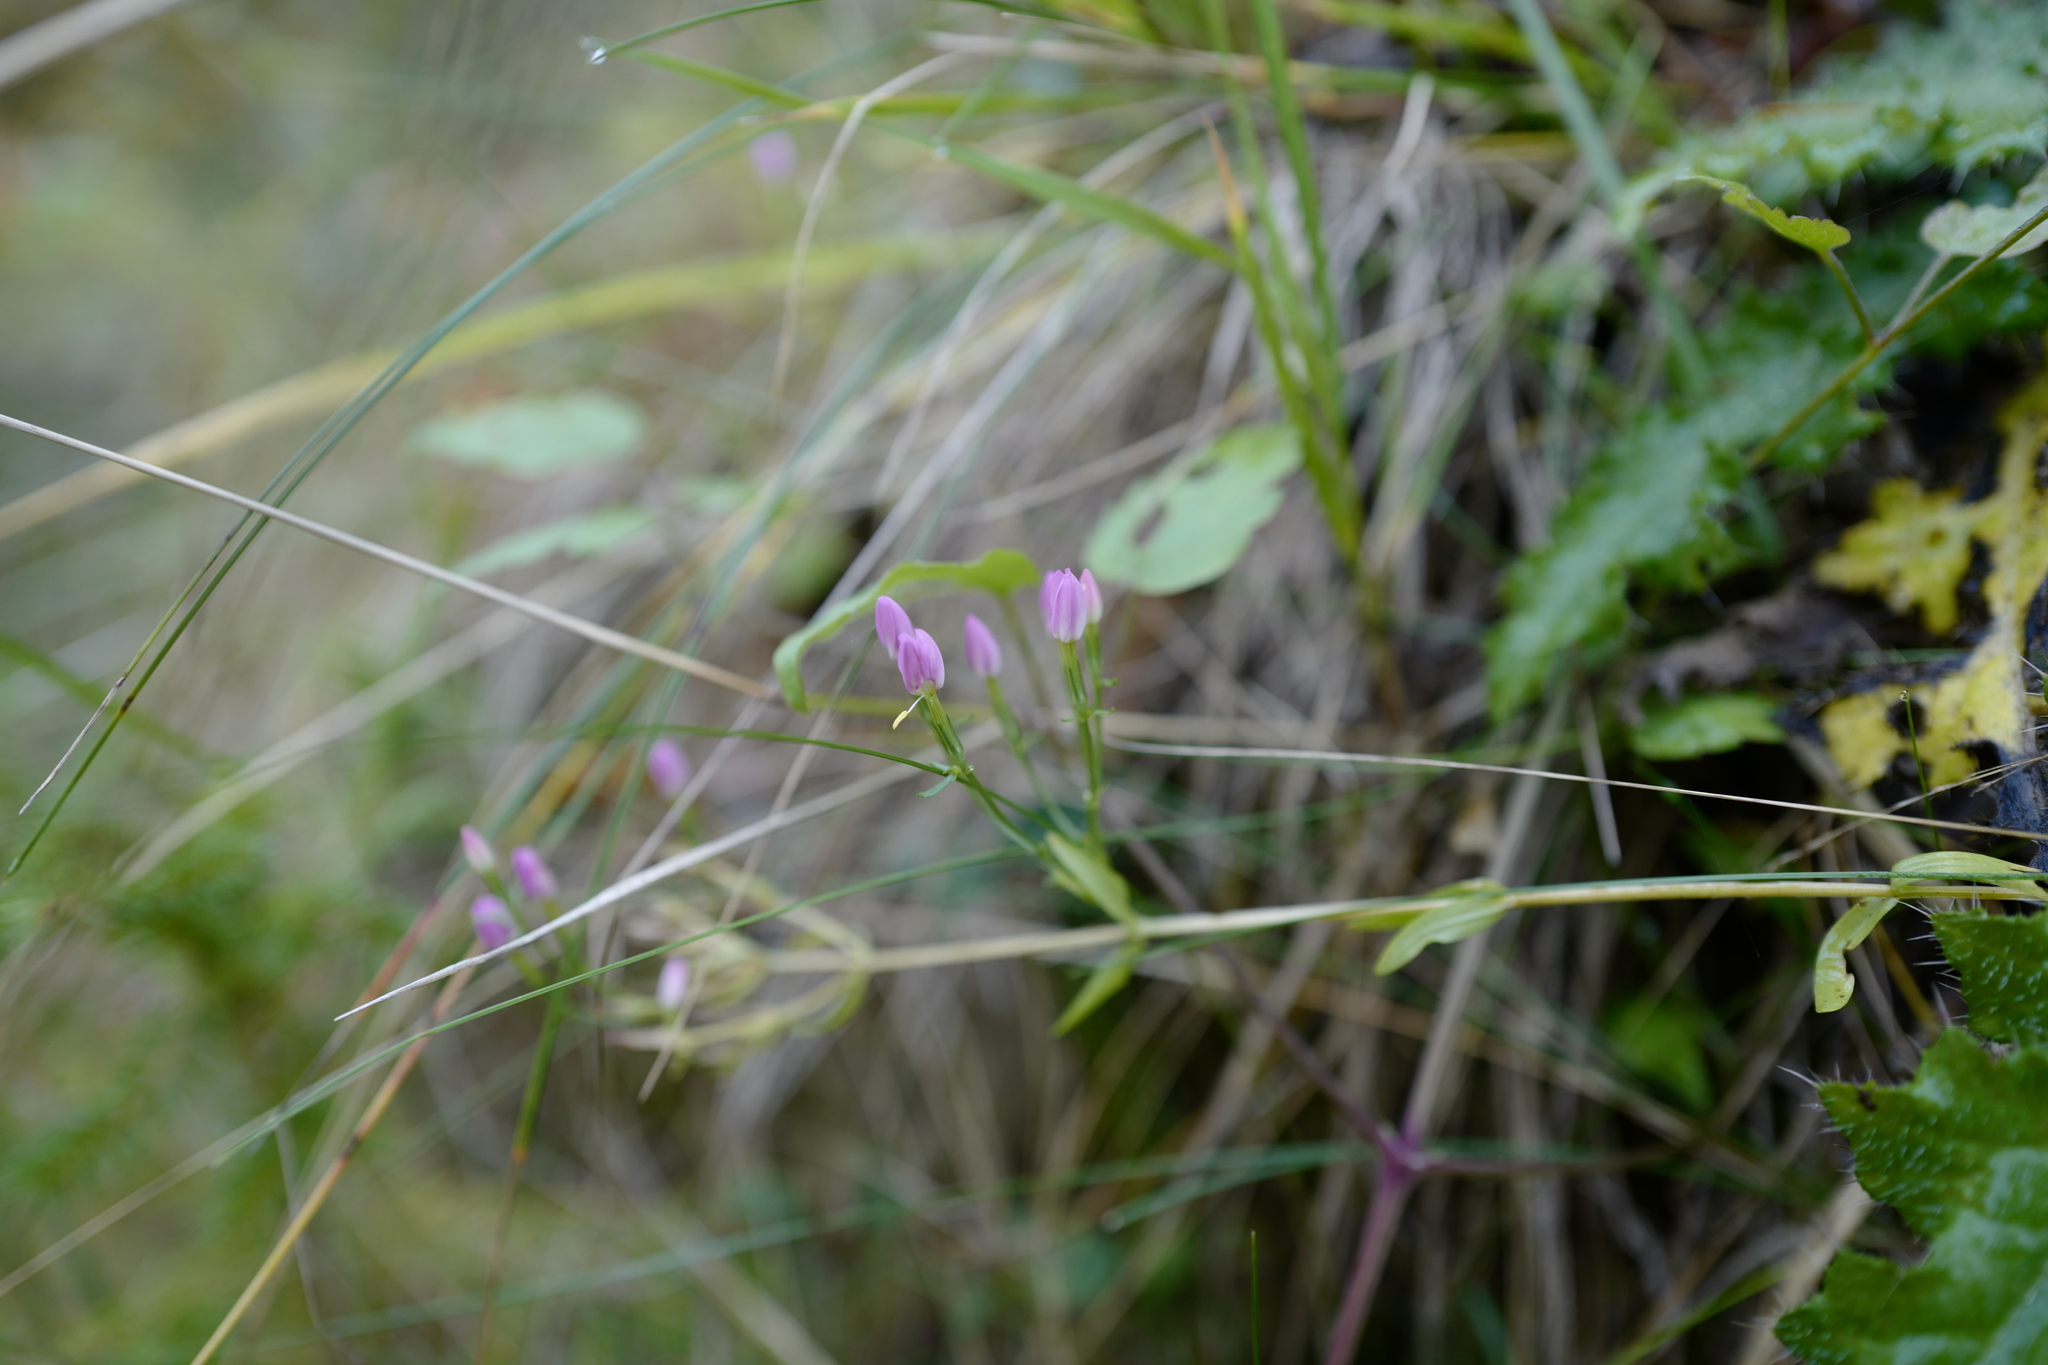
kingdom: Plantae
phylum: Tracheophyta
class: Magnoliopsida
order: Gentianales
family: Gentianaceae
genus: Centaurium
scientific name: Centaurium erythraea
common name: Common centaury
